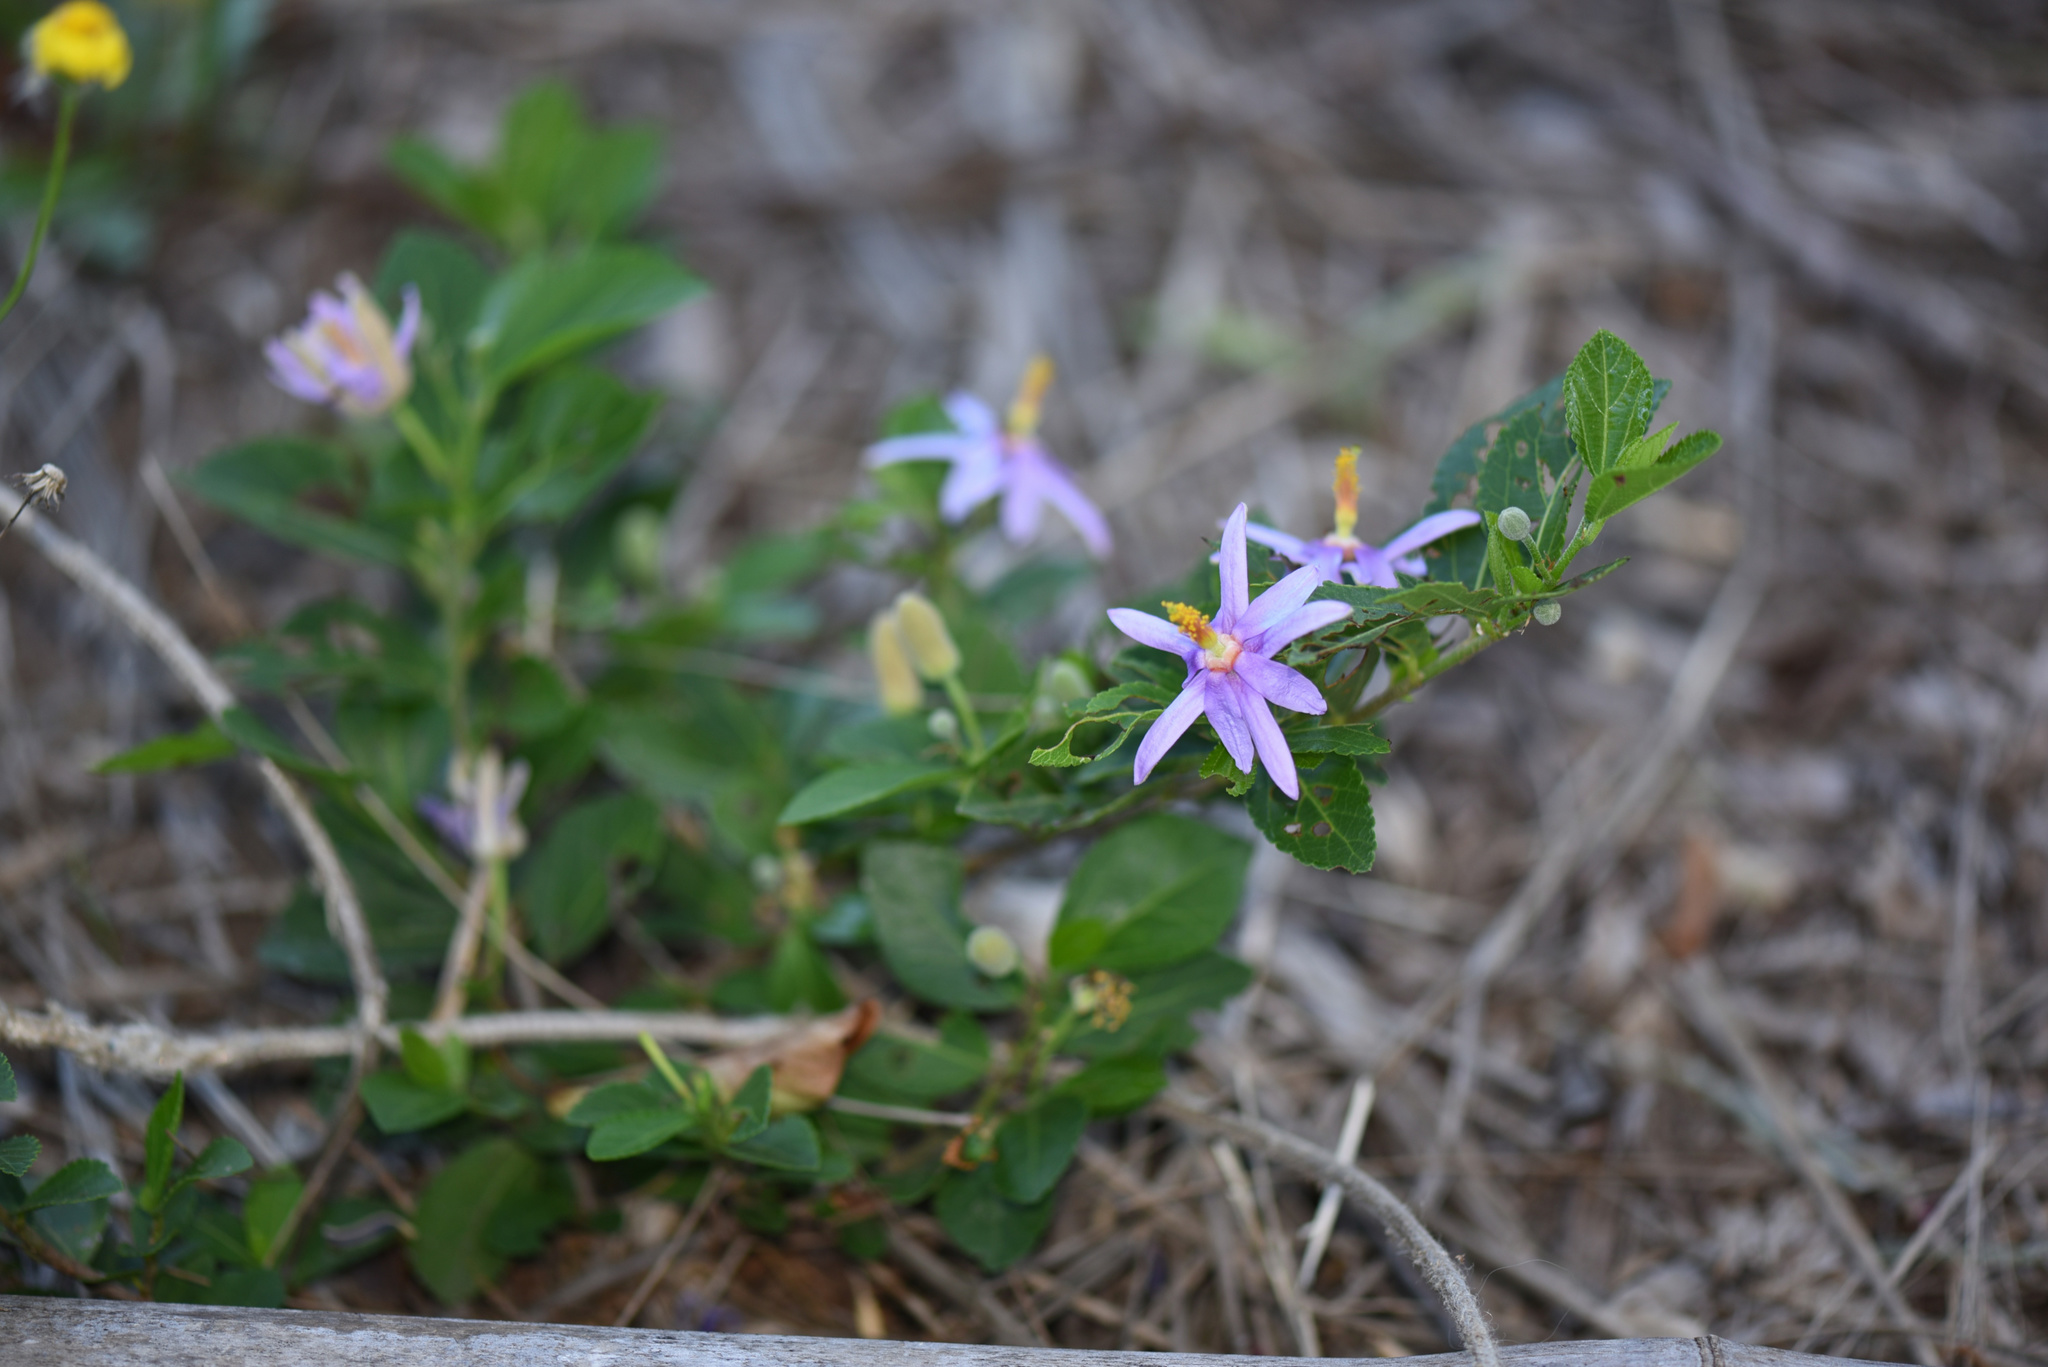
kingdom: Plantae
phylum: Tracheophyta
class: Magnoliopsida
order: Malvales
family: Malvaceae
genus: Grewia
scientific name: Grewia occidentalis
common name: Crossberry
